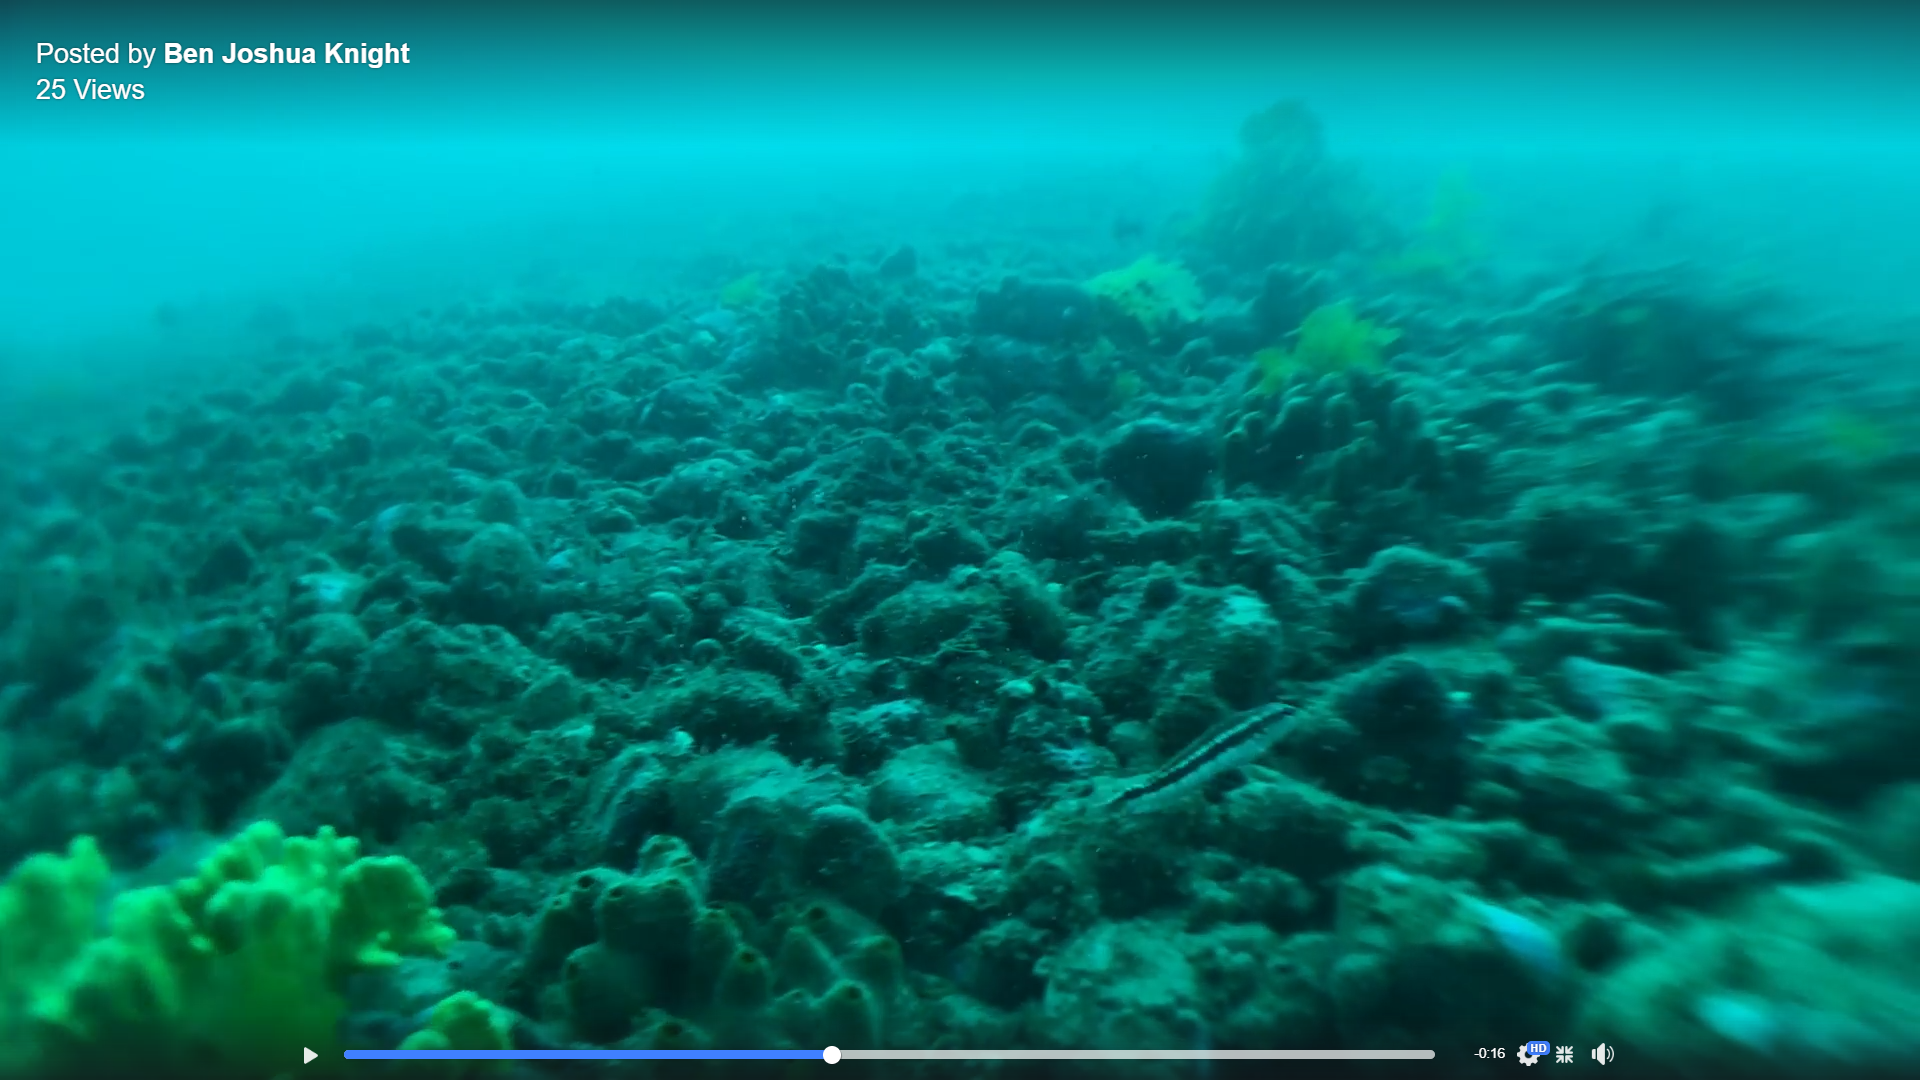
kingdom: Animalia
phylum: Chordata
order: Perciformes
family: Pinguipedidae
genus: Parapercis
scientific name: Parapercis colias
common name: Blue cod
